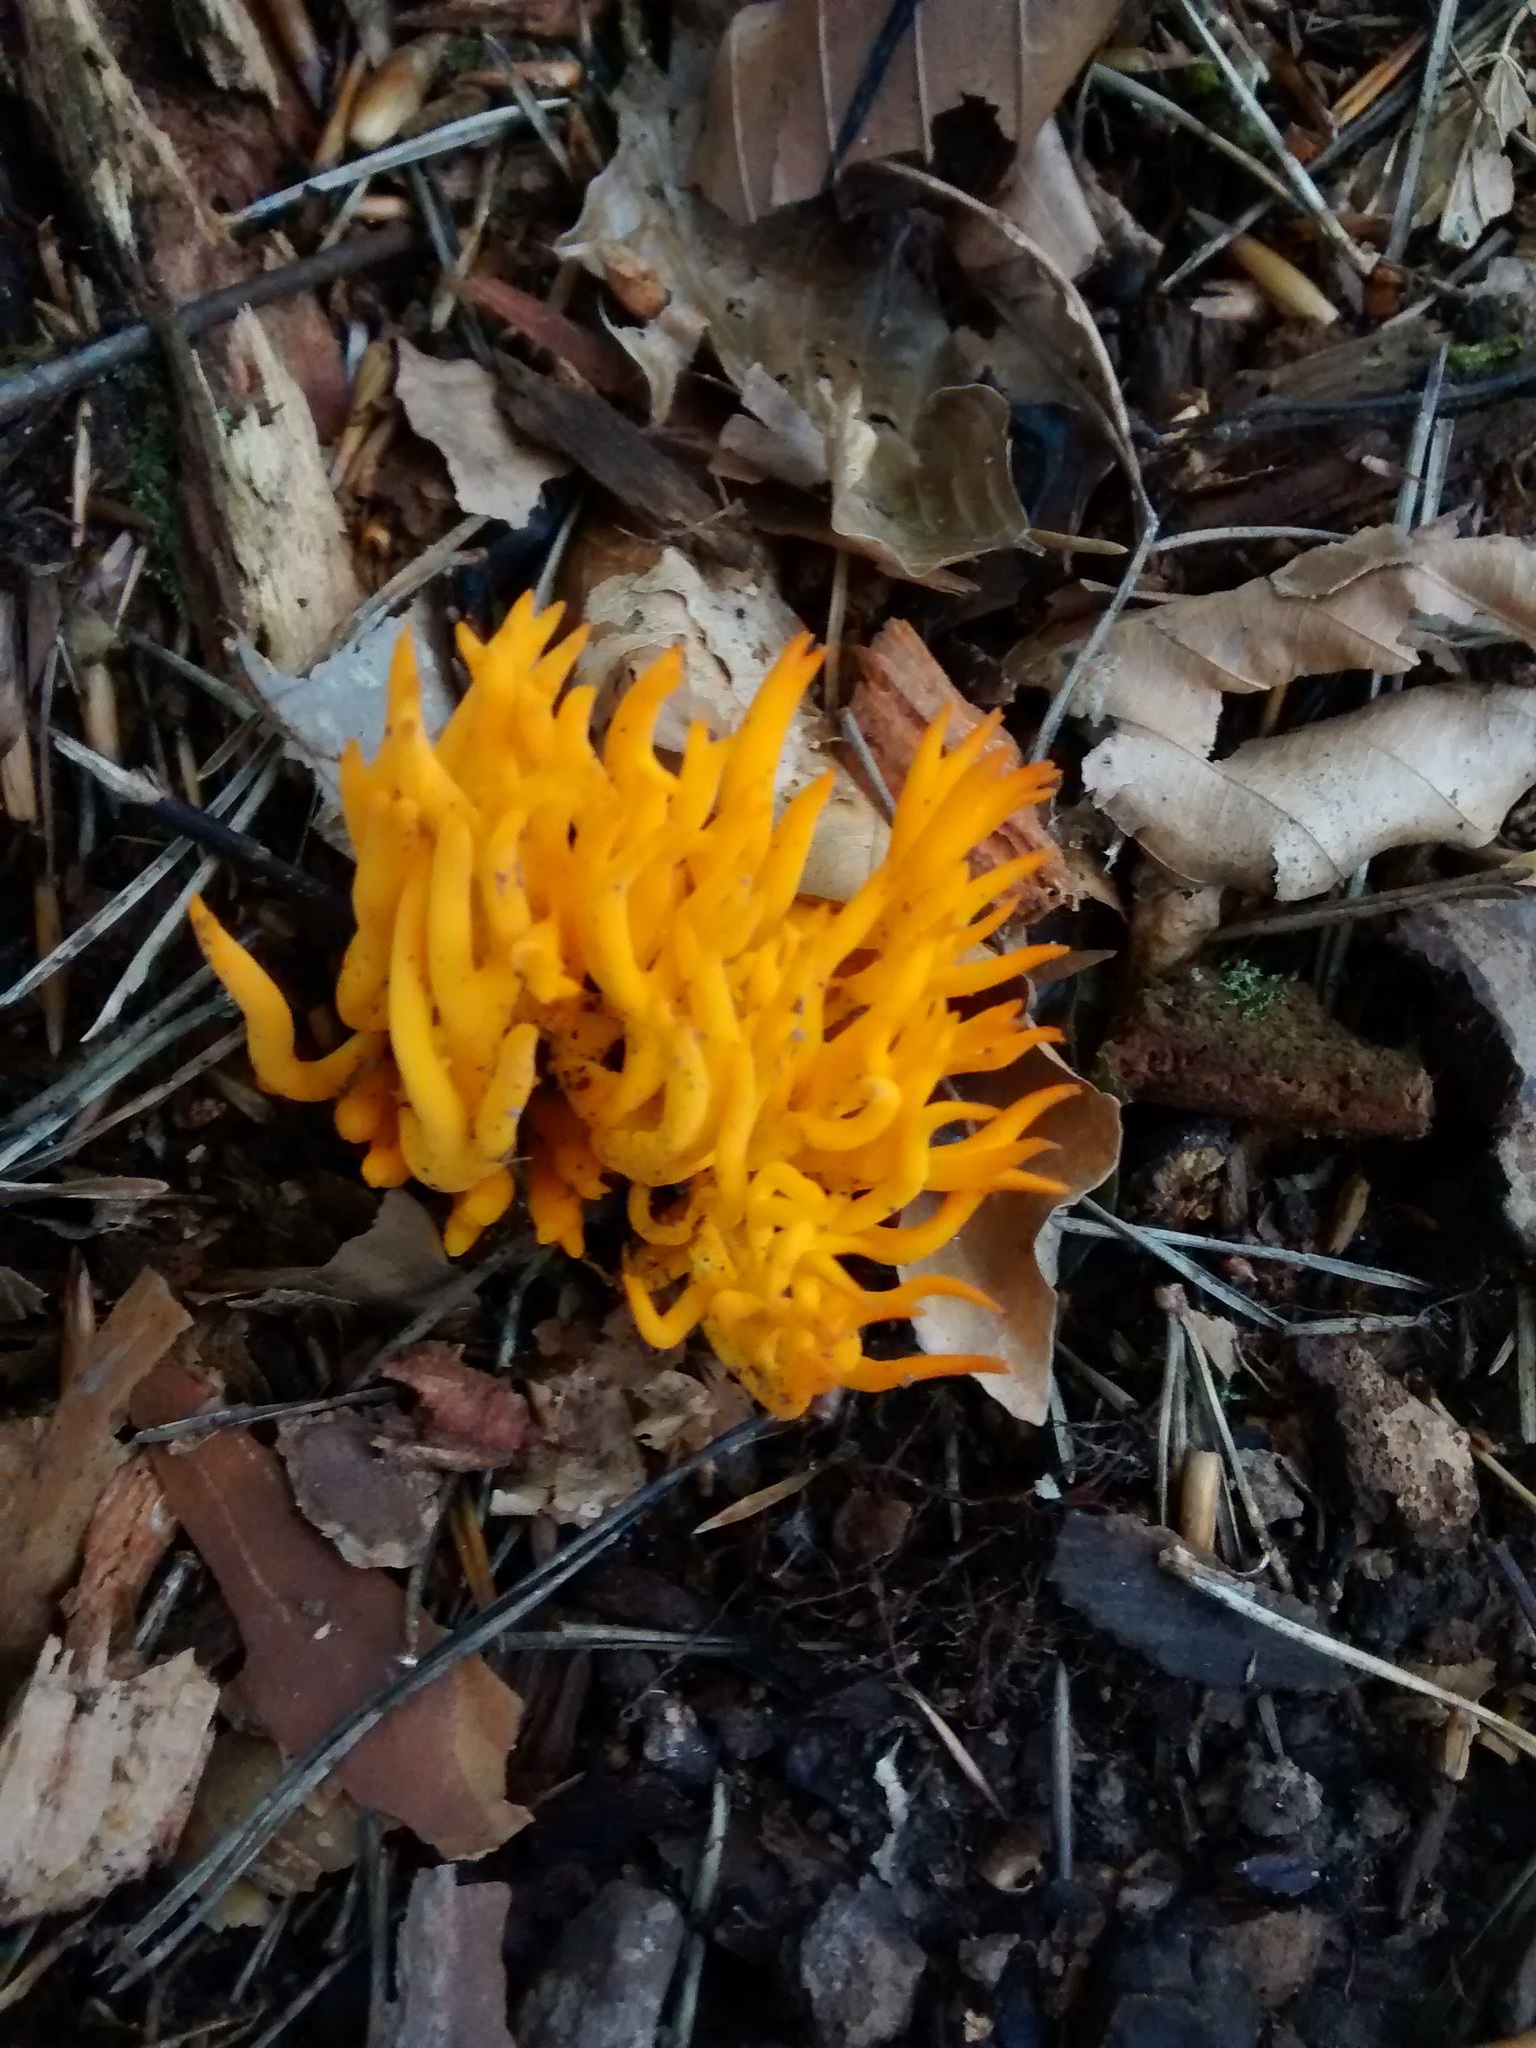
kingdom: Fungi
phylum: Basidiomycota
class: Dacrymycetes
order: Dacrymycetales
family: Dacrymycetaceae
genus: Calocera
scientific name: Calocera viscosa
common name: Yellow stagshorn
